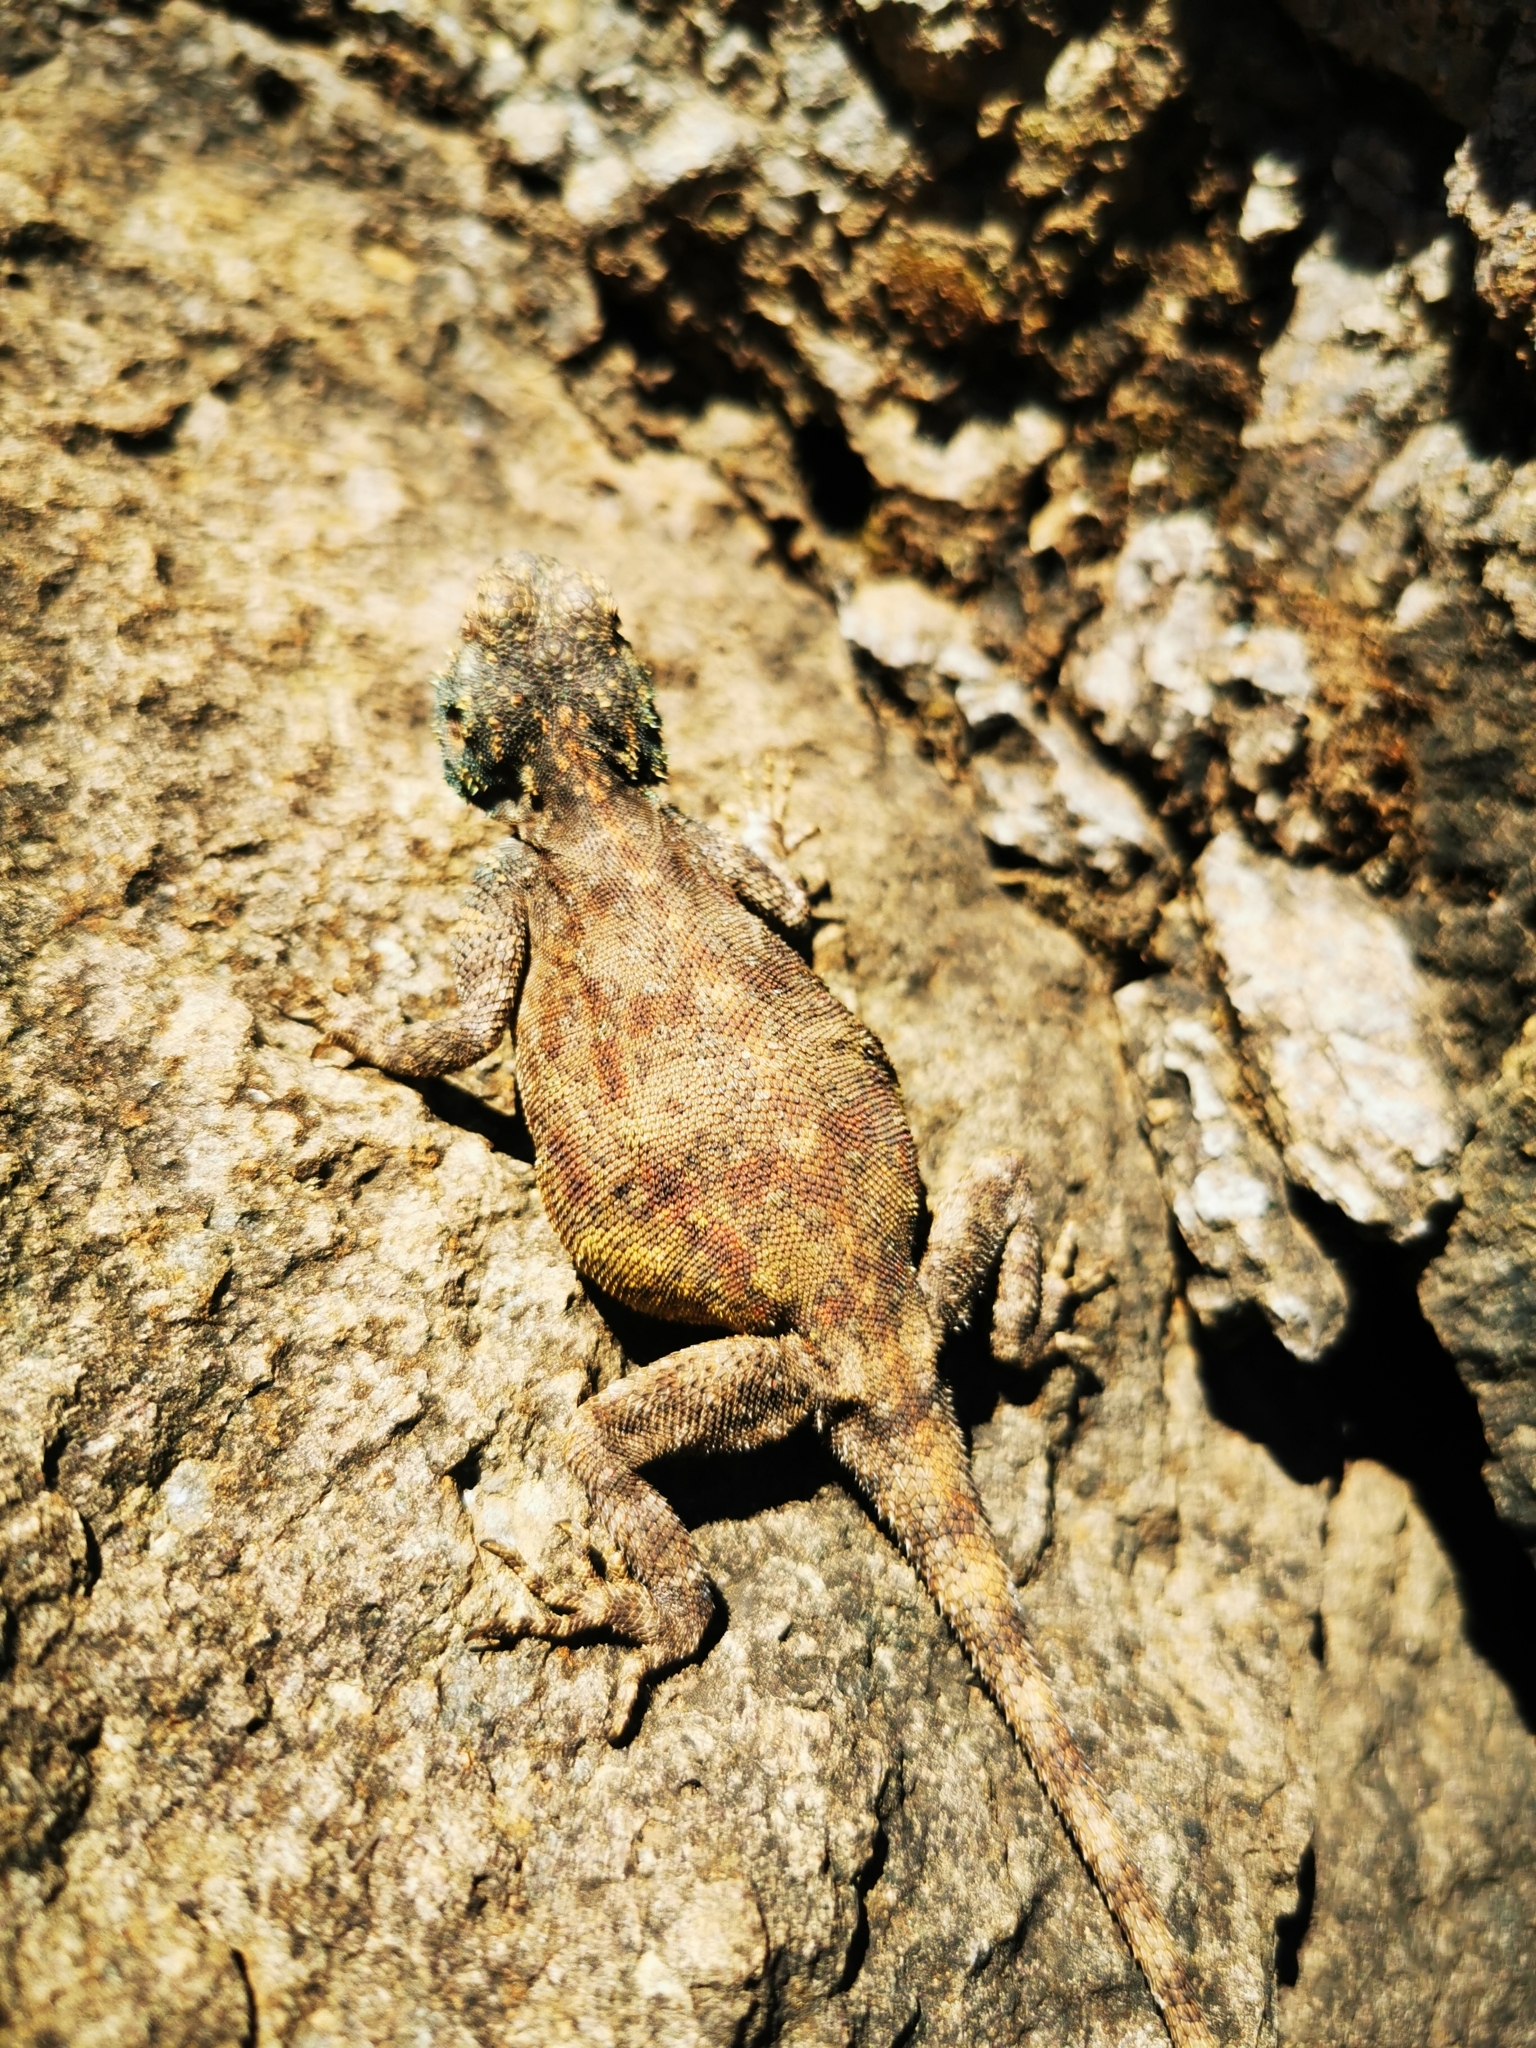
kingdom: Animalia
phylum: Chordata
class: Squamata
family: Agamidae
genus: Agama
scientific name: Agama atra
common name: Southern african rock agama
